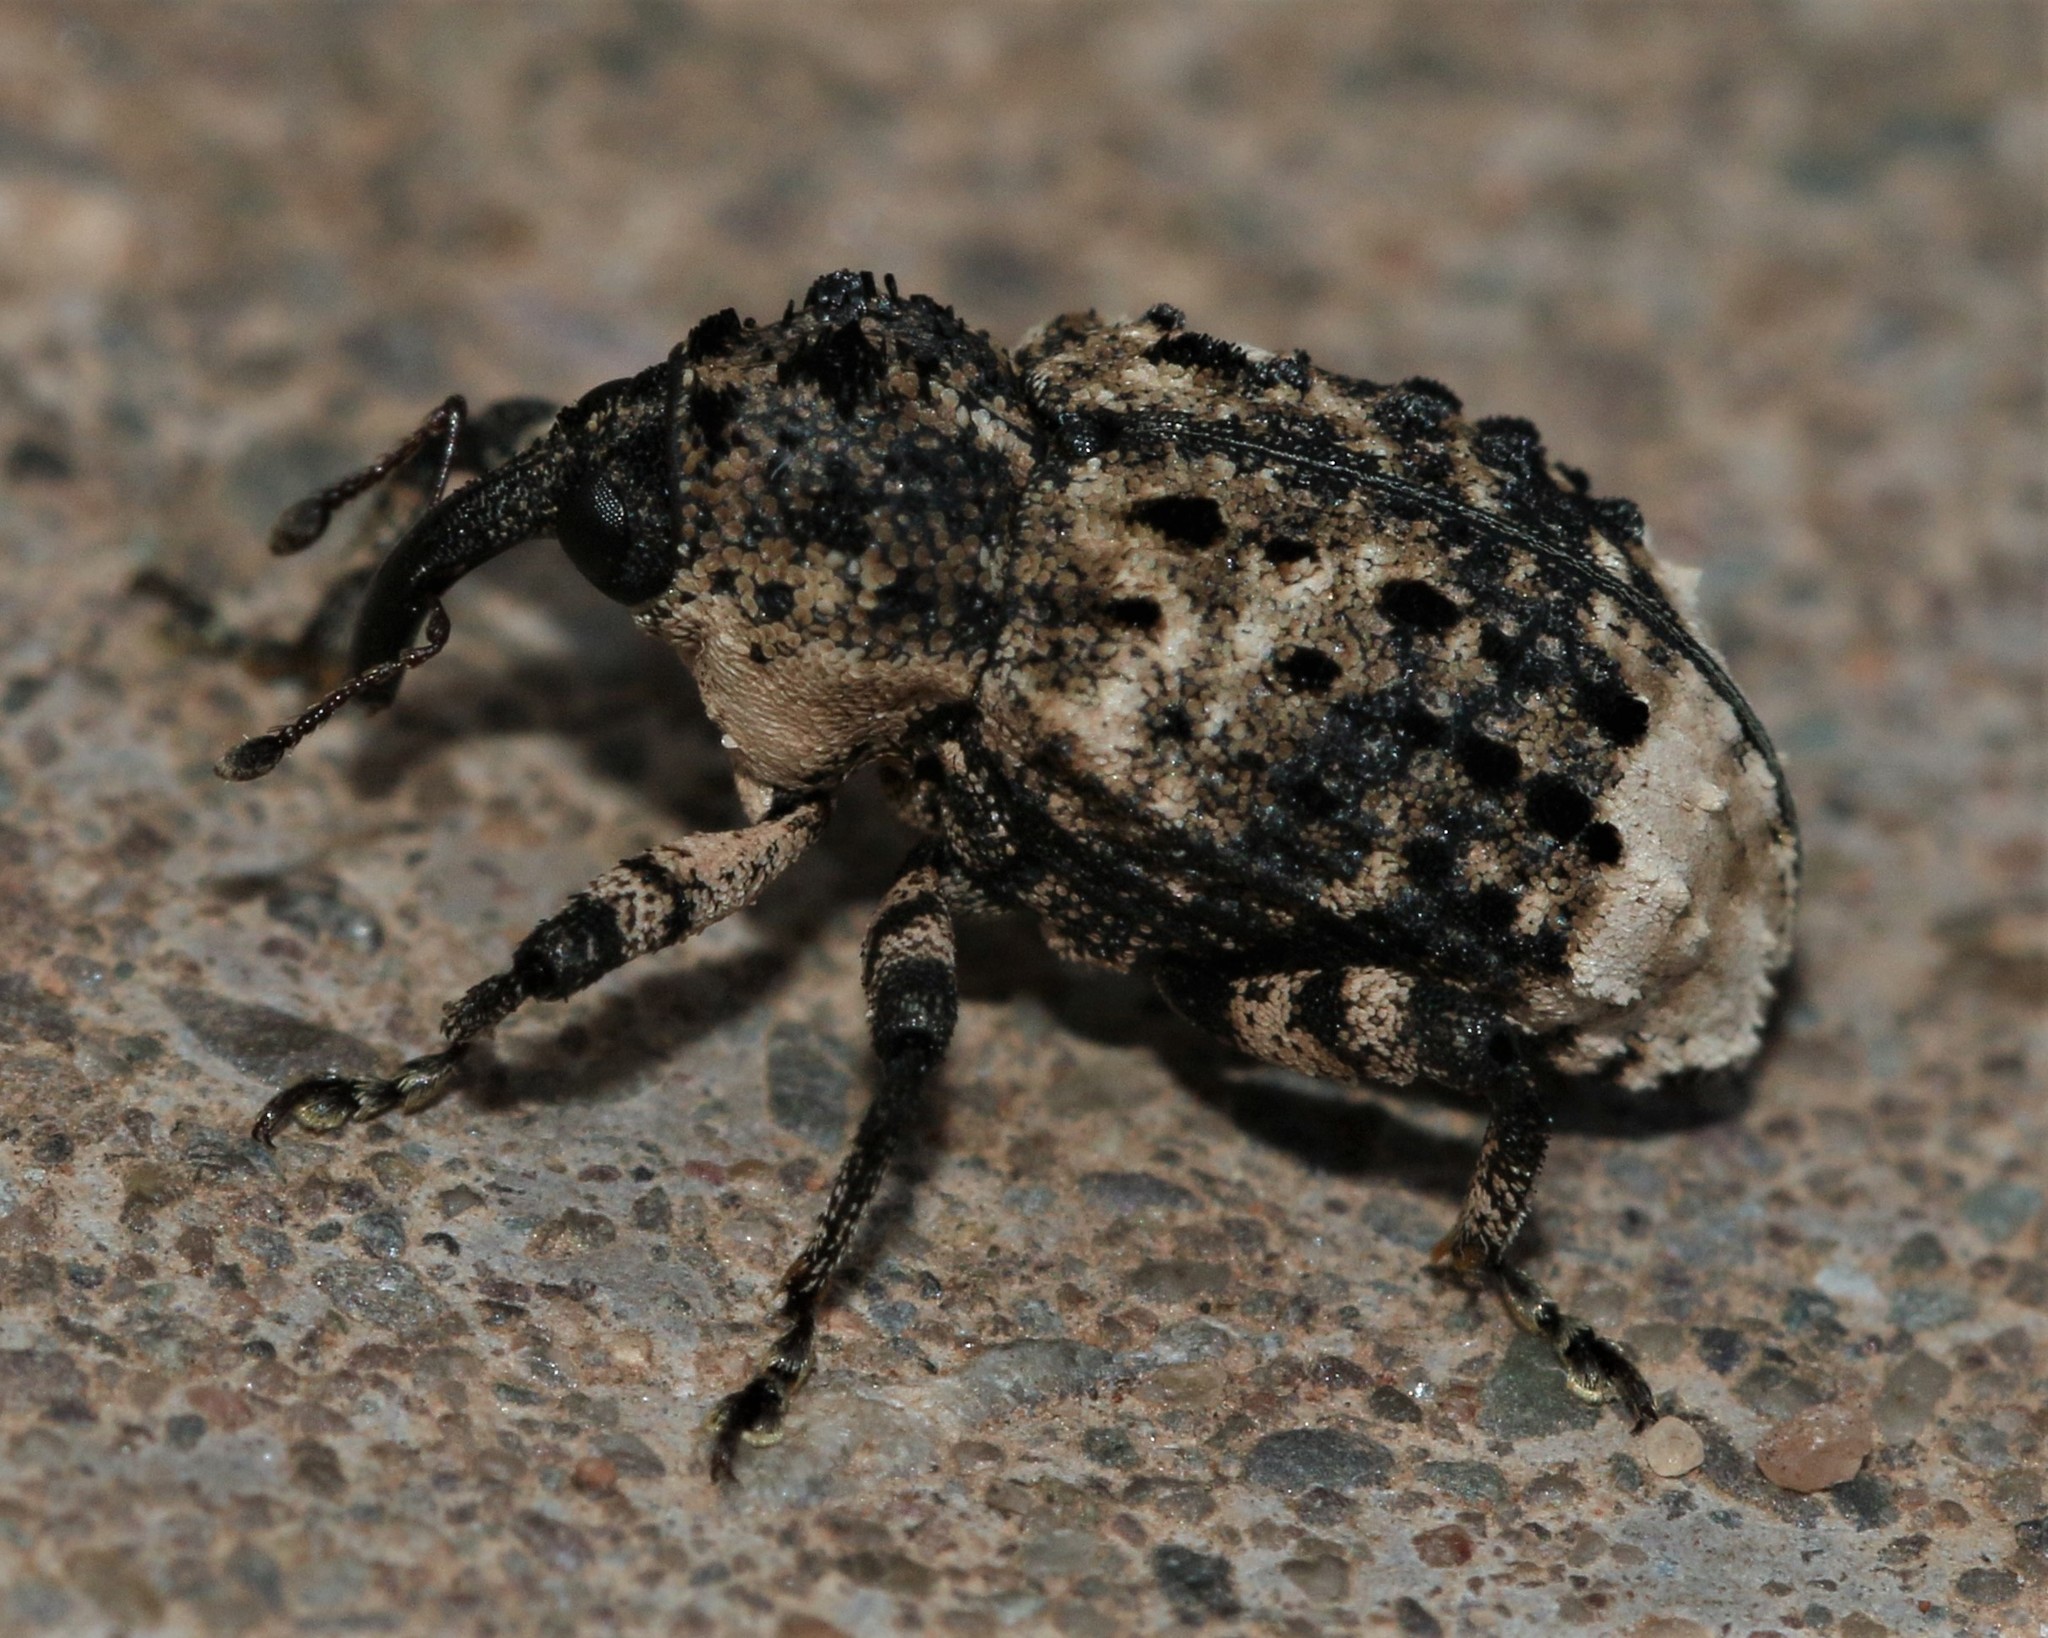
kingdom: Animalia
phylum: Arthropoda
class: Insecta
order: Coleoptera
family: Curculionidae
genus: Cryptorhynchus
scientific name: Cryptorhynchus lapathi
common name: Weevil
